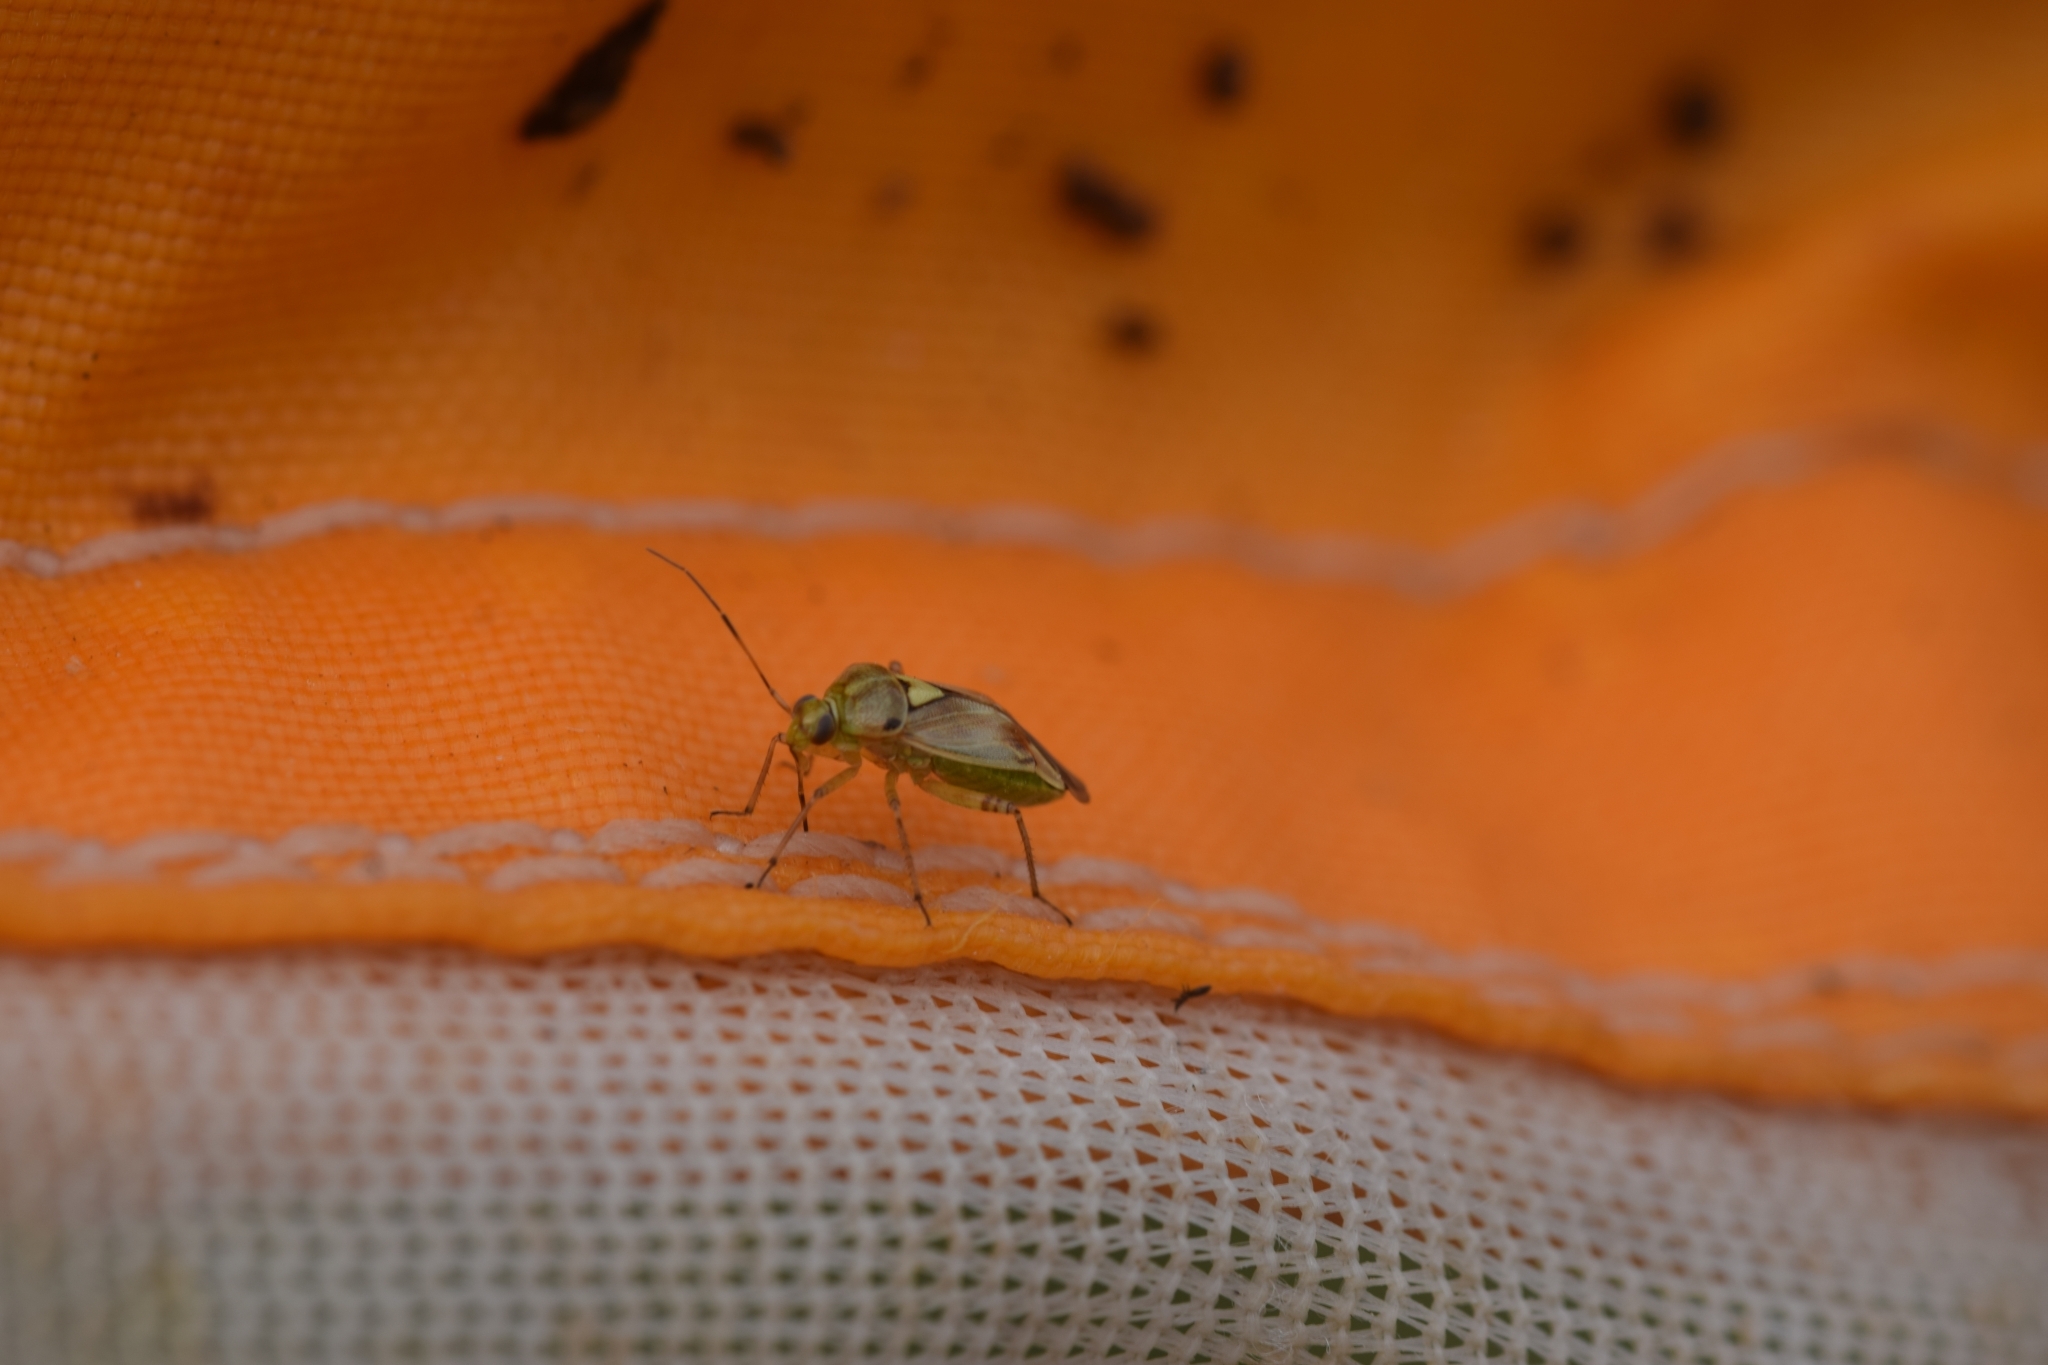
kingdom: Animalia
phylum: Arthropoda
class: Insecta
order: Hemiptera
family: Miridae
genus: Lygus
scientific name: Lygus pratensis
